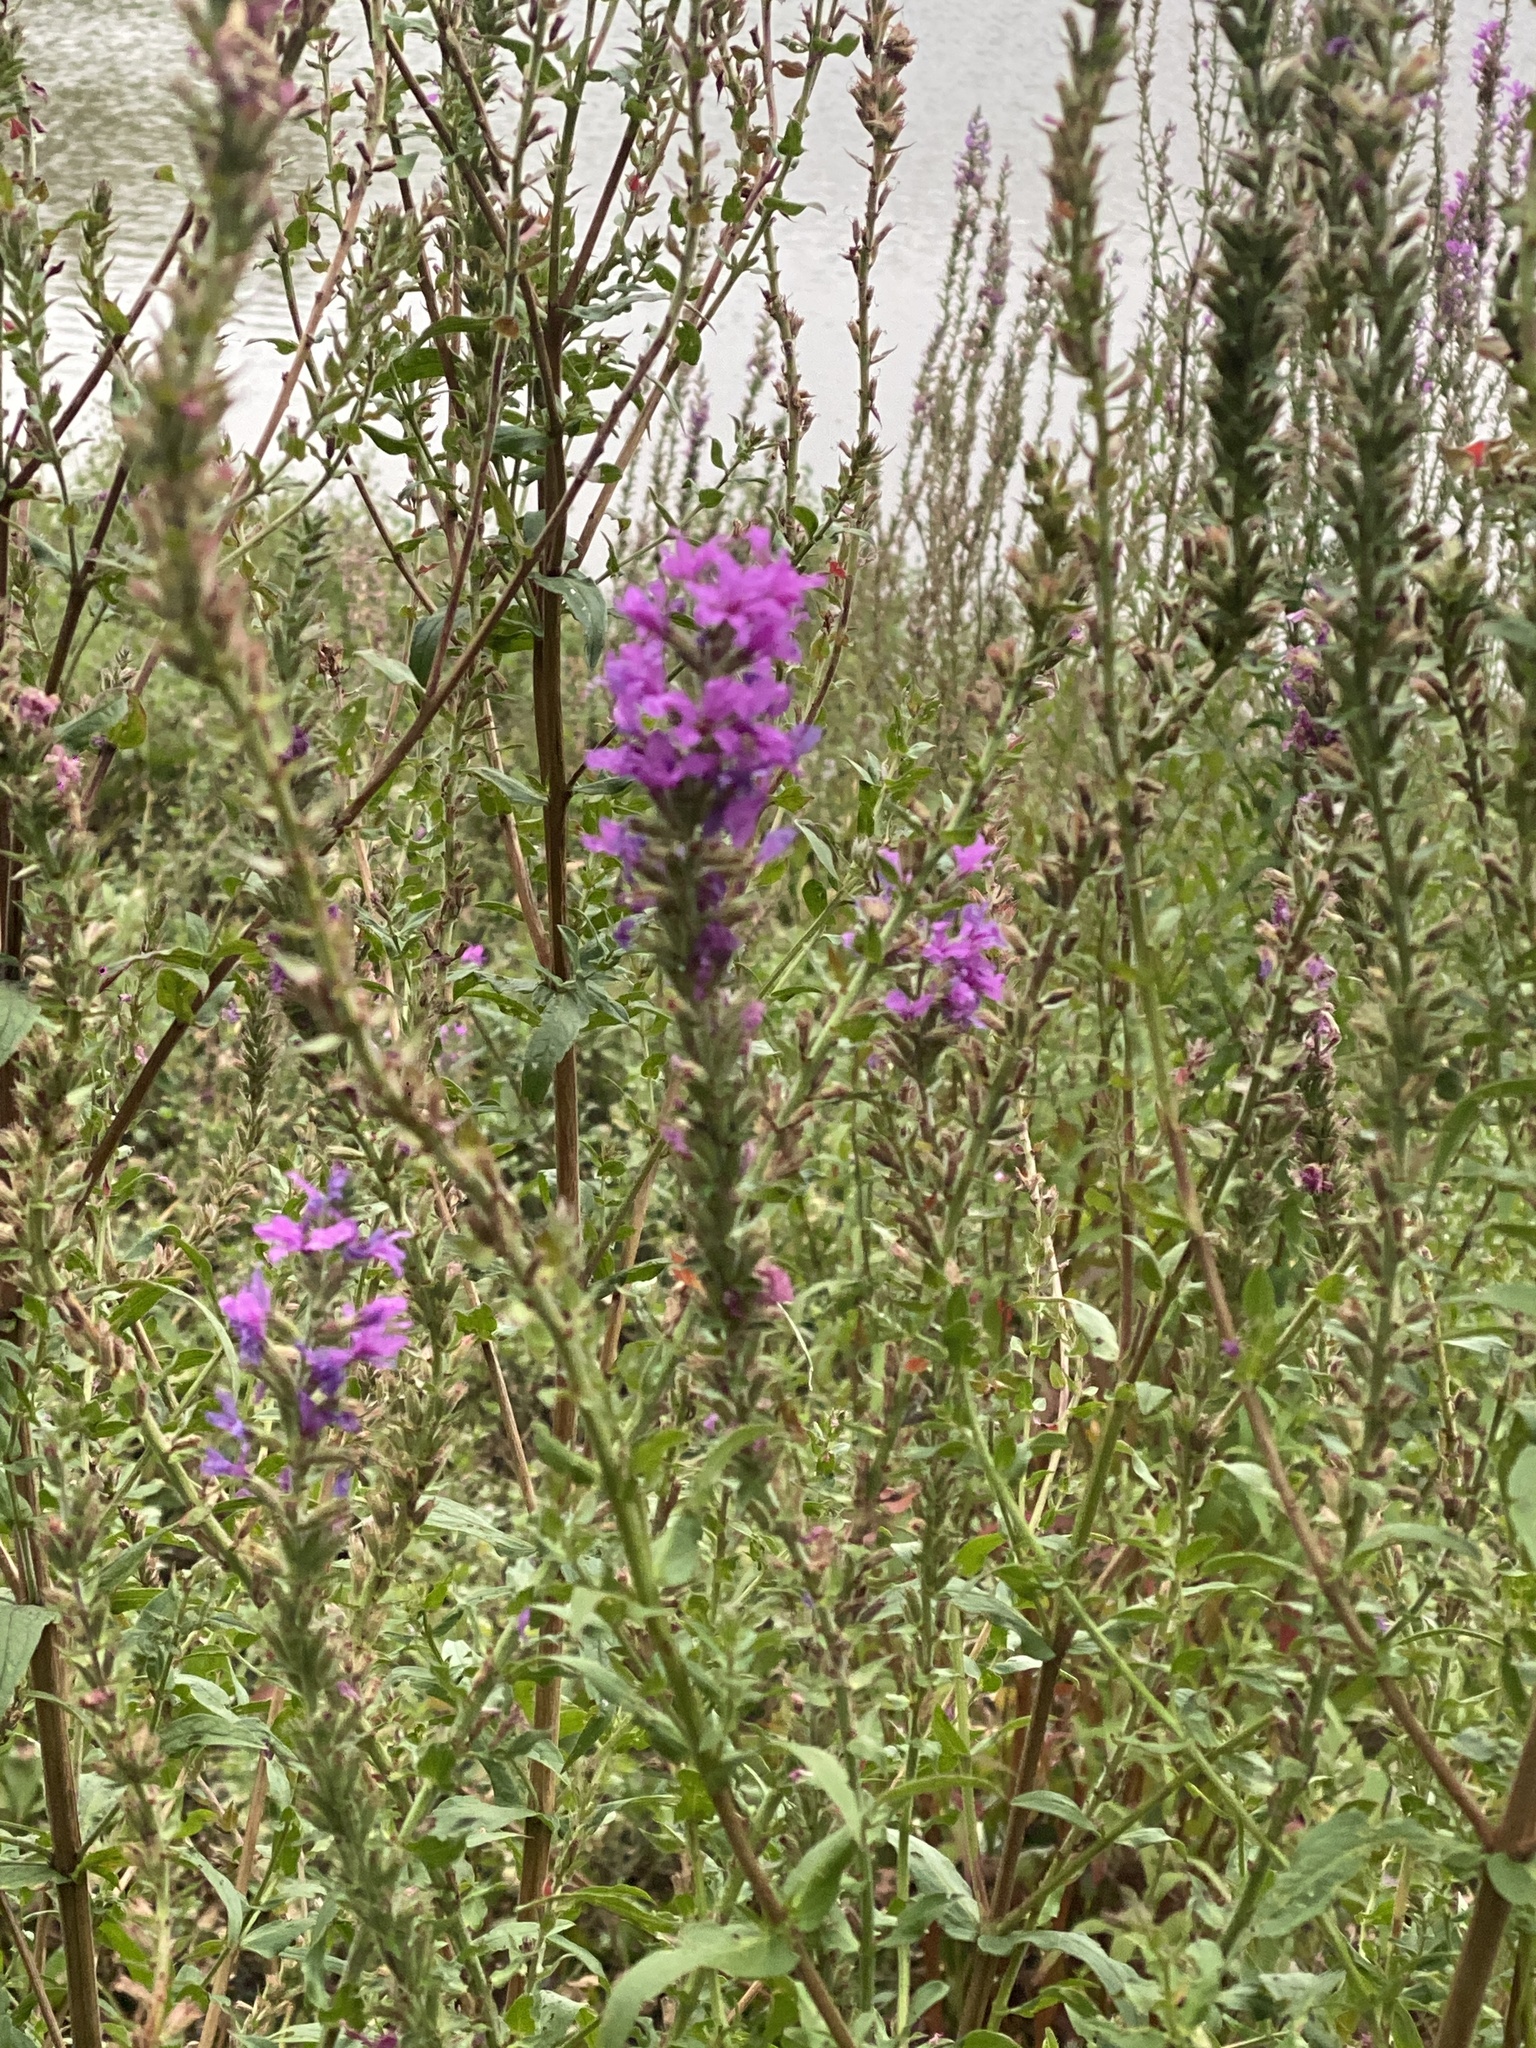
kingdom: Plantae
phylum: Tracheophyta
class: Magnoliopsida
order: Myrtales
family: Lythraceae
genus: Lythrum
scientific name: Lythrum salicaria
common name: Purple loosestrife
